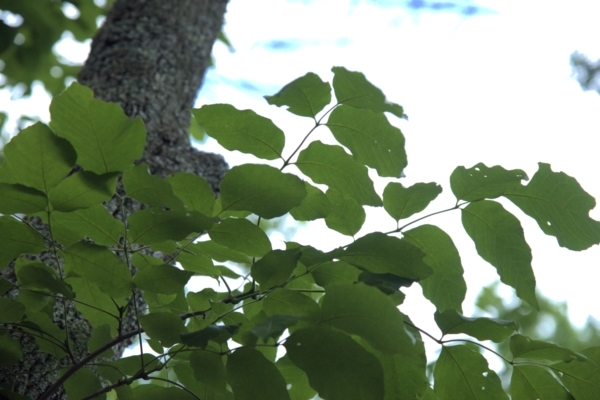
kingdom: Plantae
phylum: Tracheophyta
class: Magnoliopsida
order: Lamiales
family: Oleaceae
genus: Fraxinus
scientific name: Fraxinus americana
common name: White ash
